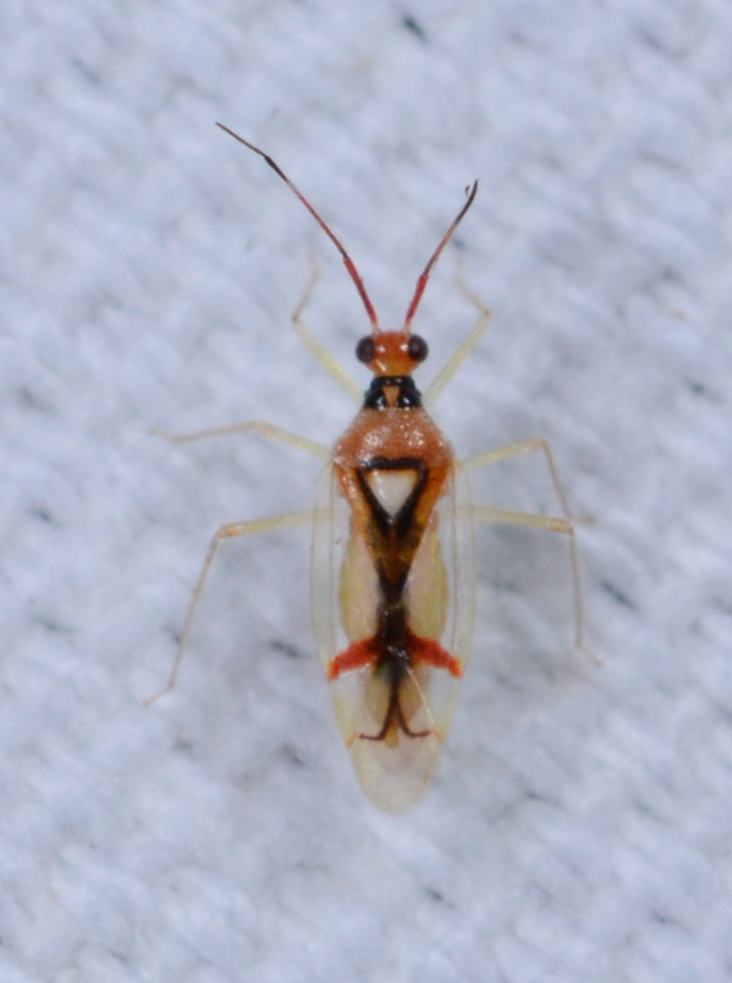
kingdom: Animalia
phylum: Arthropoda
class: Insecta
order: Hemiptera
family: Miridae
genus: Hyaliodes
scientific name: Hyaliodes harti
